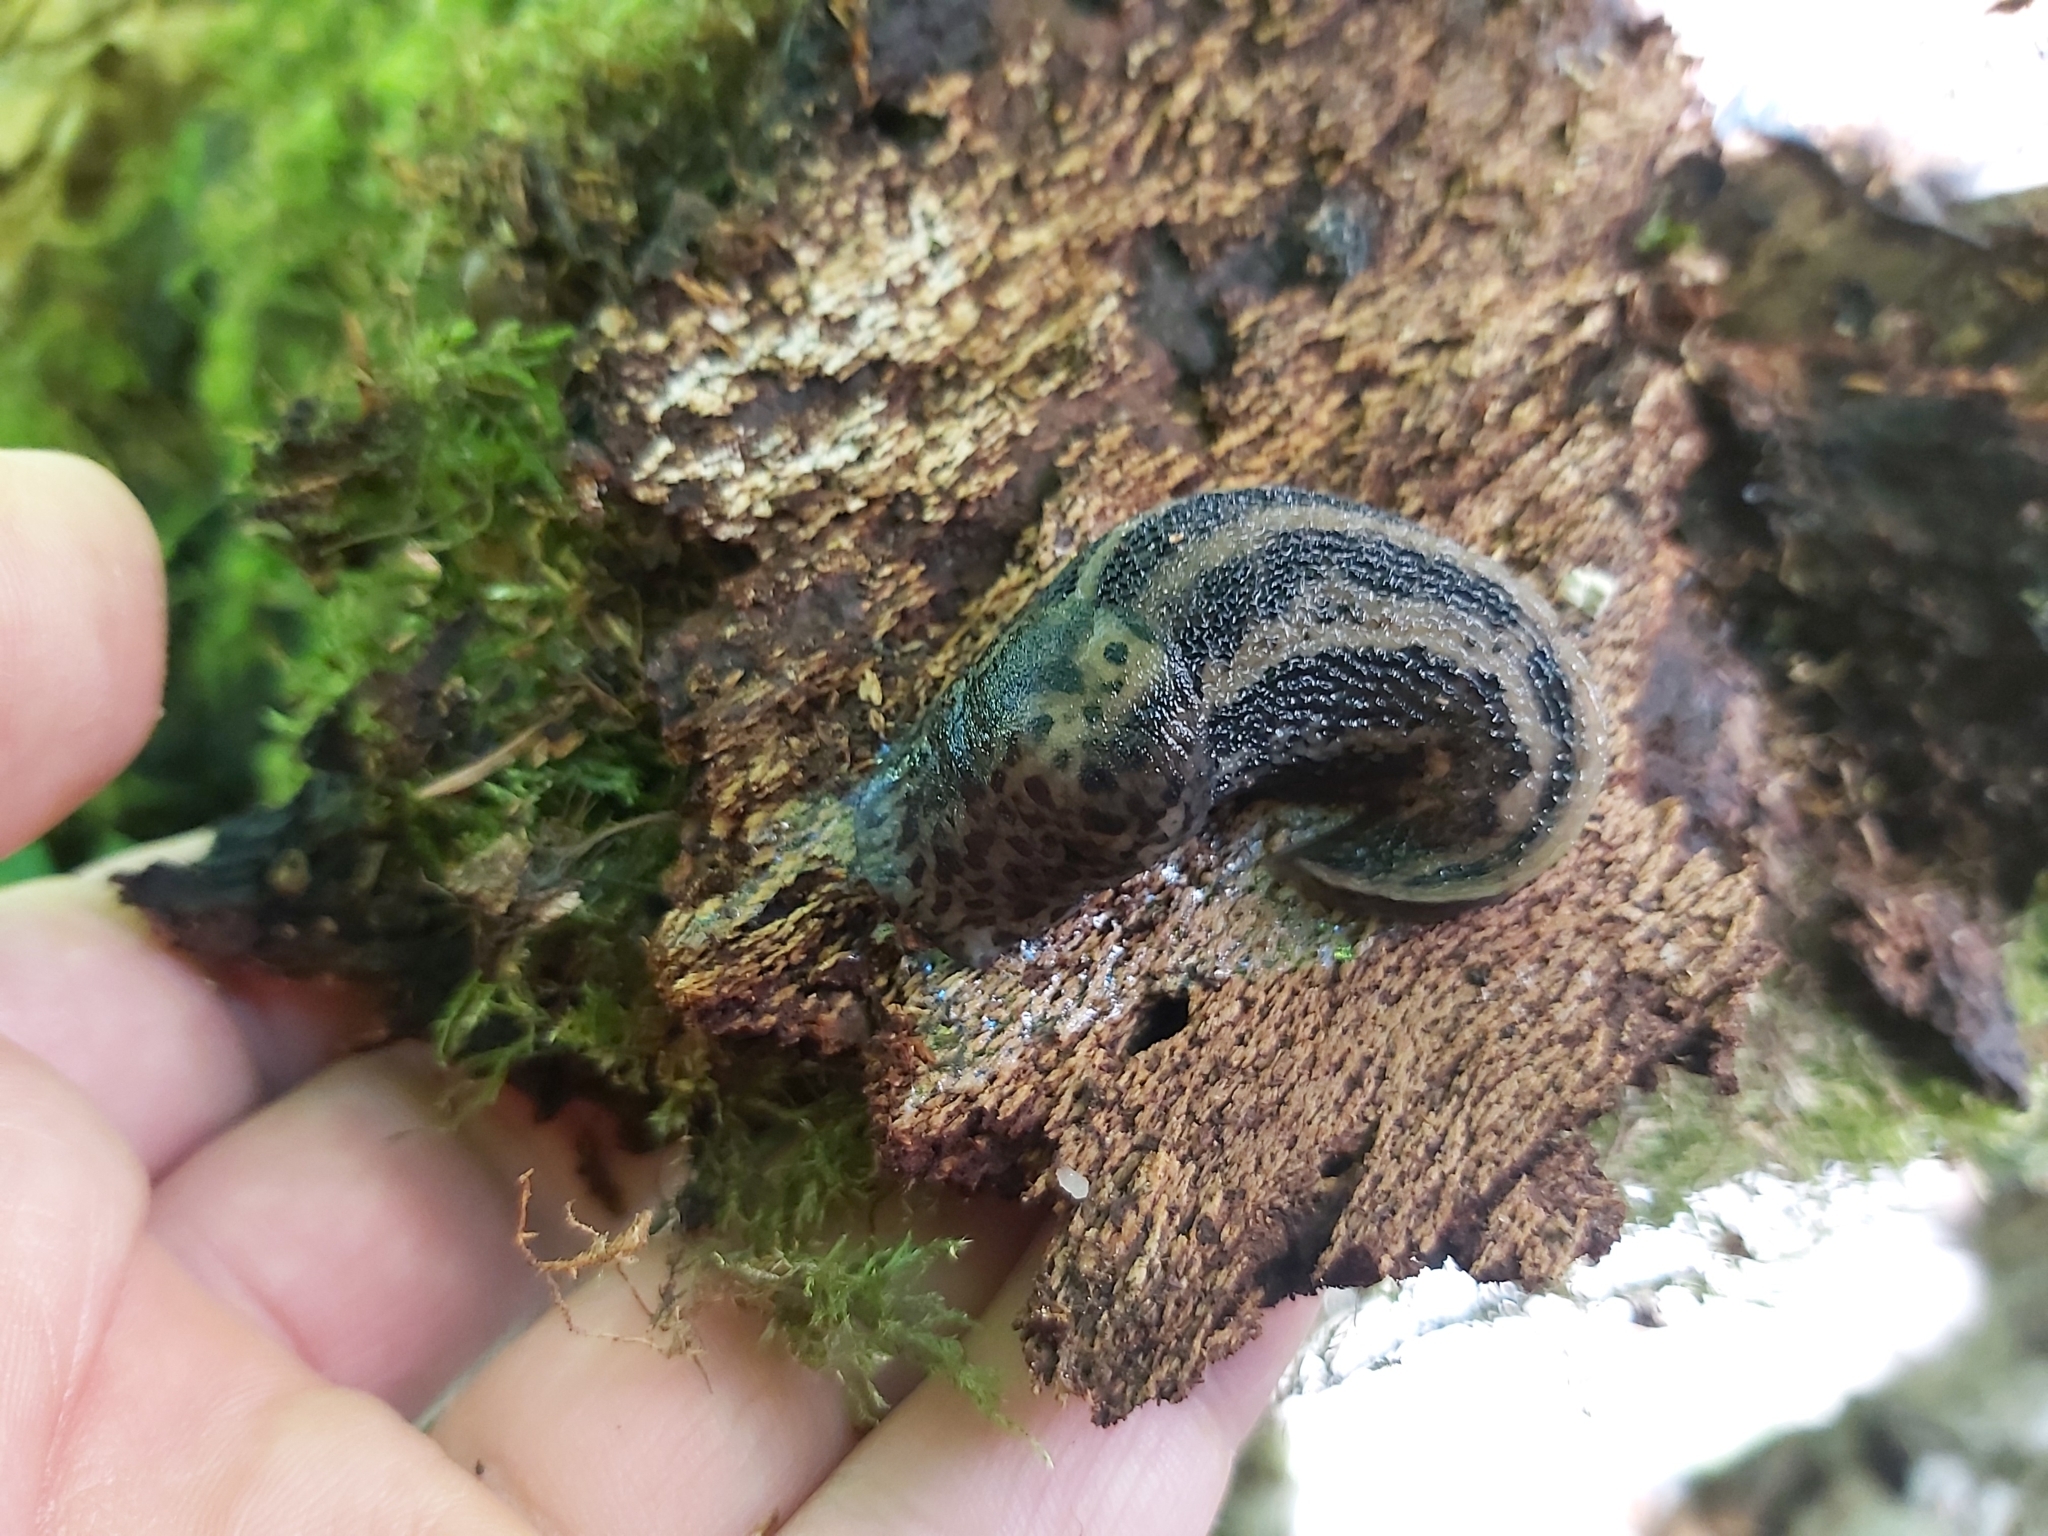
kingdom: Animalia
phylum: Mollusca
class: Gastropoda
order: Stylommatophora
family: Limacidae
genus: Limax
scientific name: Limax maximus
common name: Great grey slug
